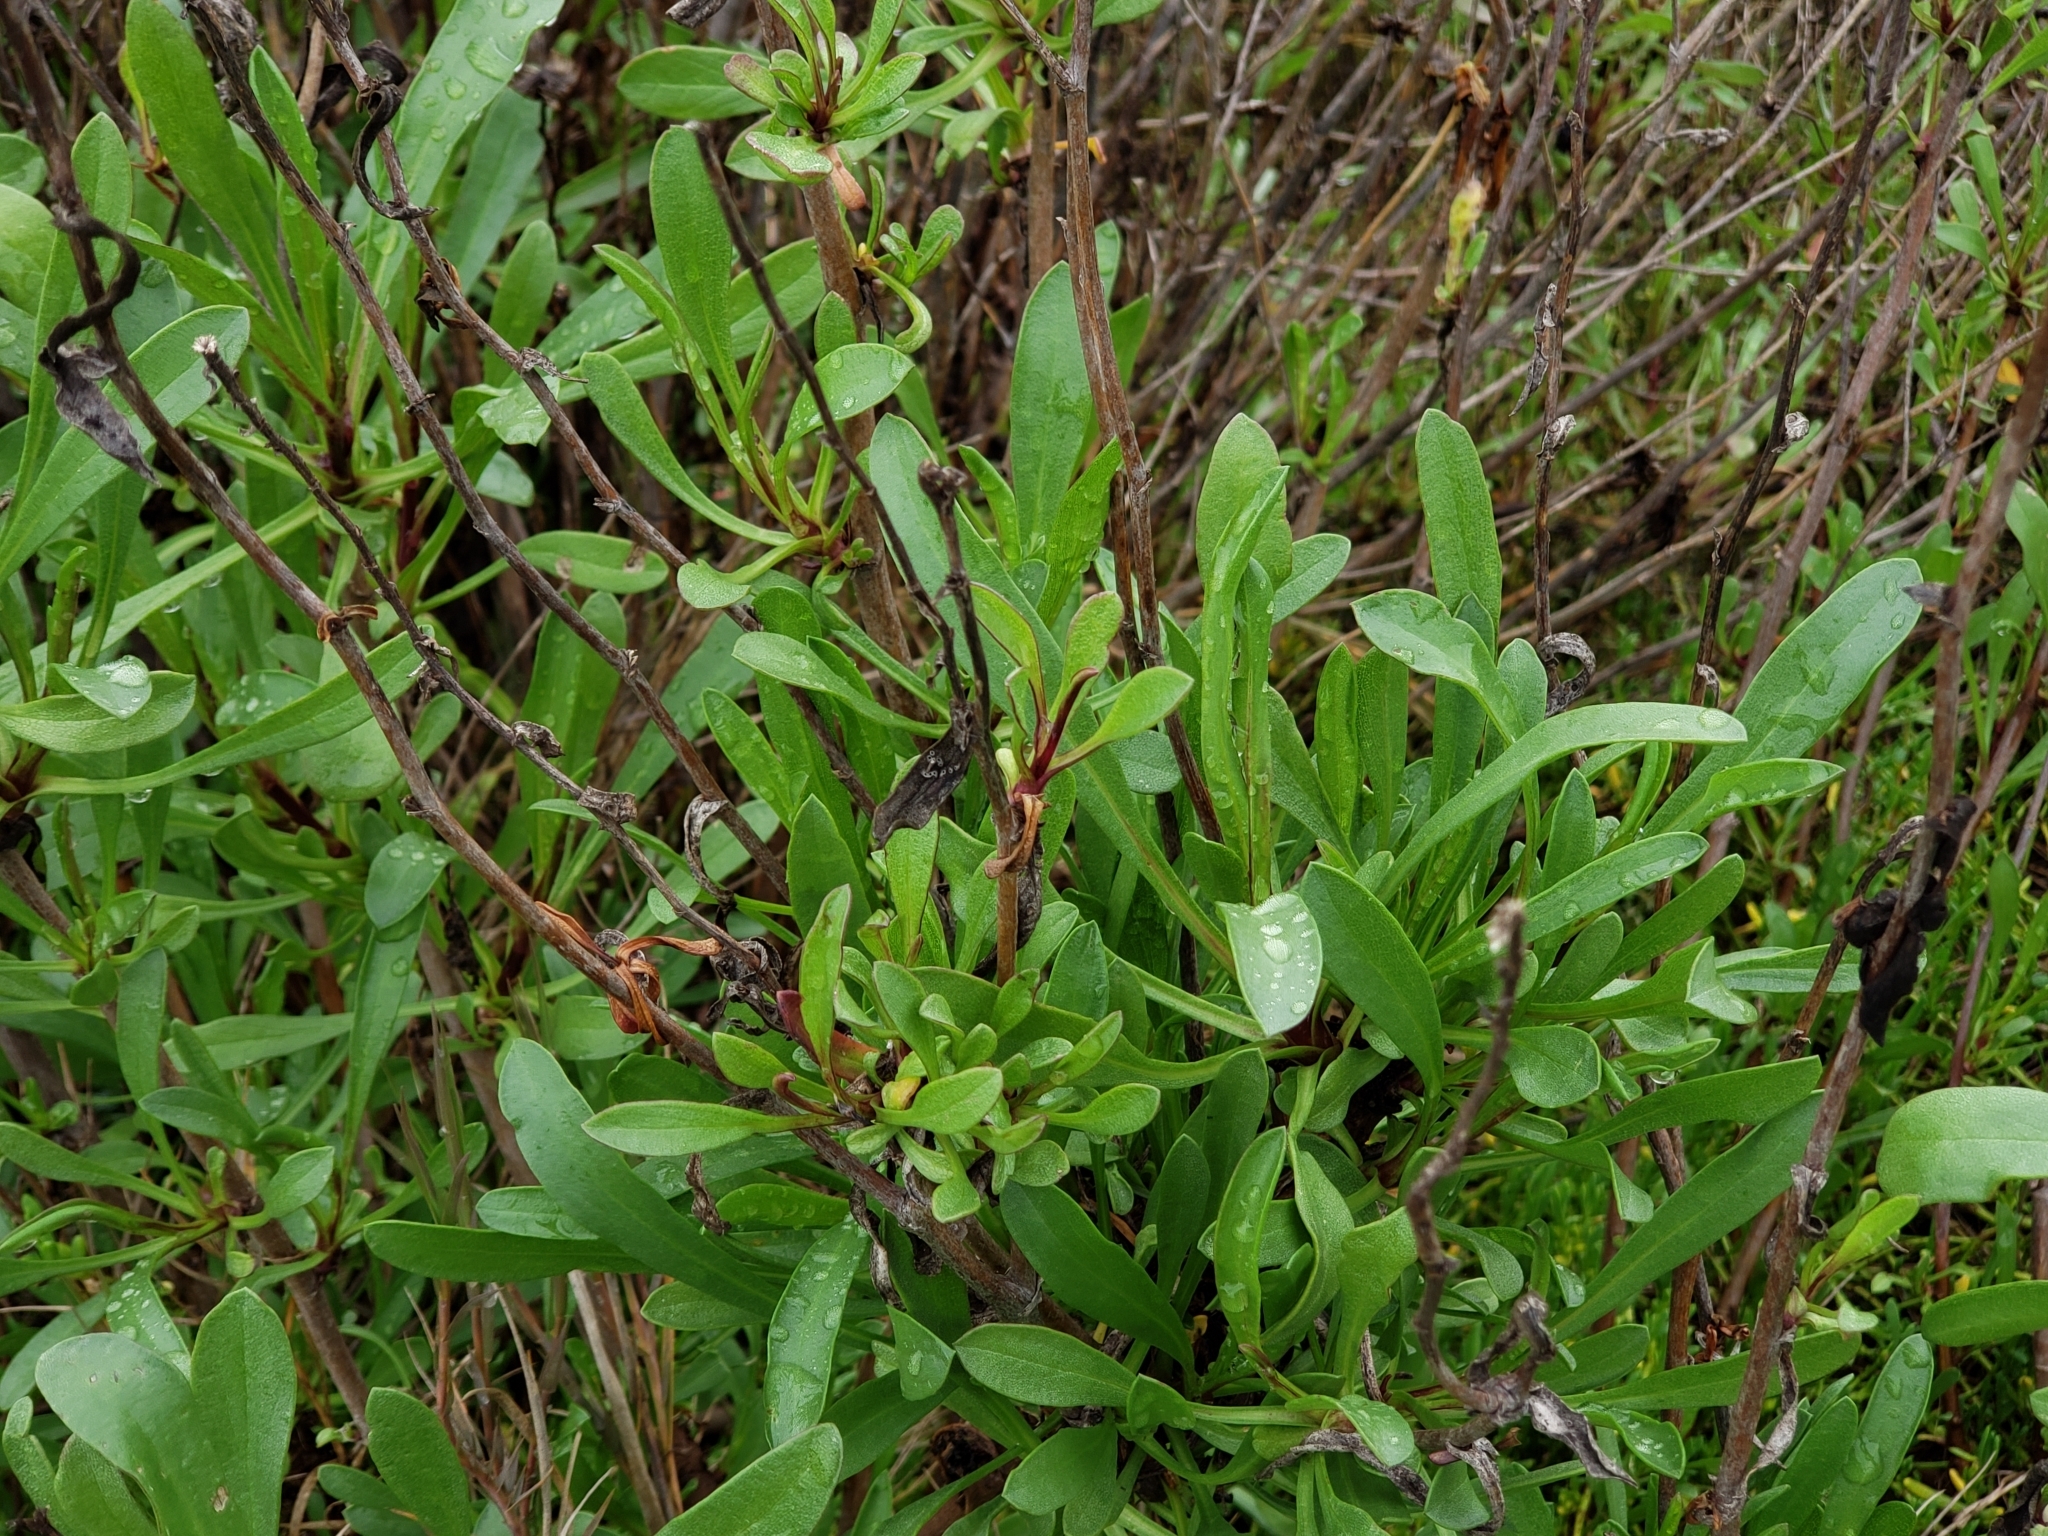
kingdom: Plantae
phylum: Tracheophyta
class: Magnoliopsida
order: Asterales
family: Asteraceae
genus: Grindelia
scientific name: Grindelia hirsutula
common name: Hairy gumweed
